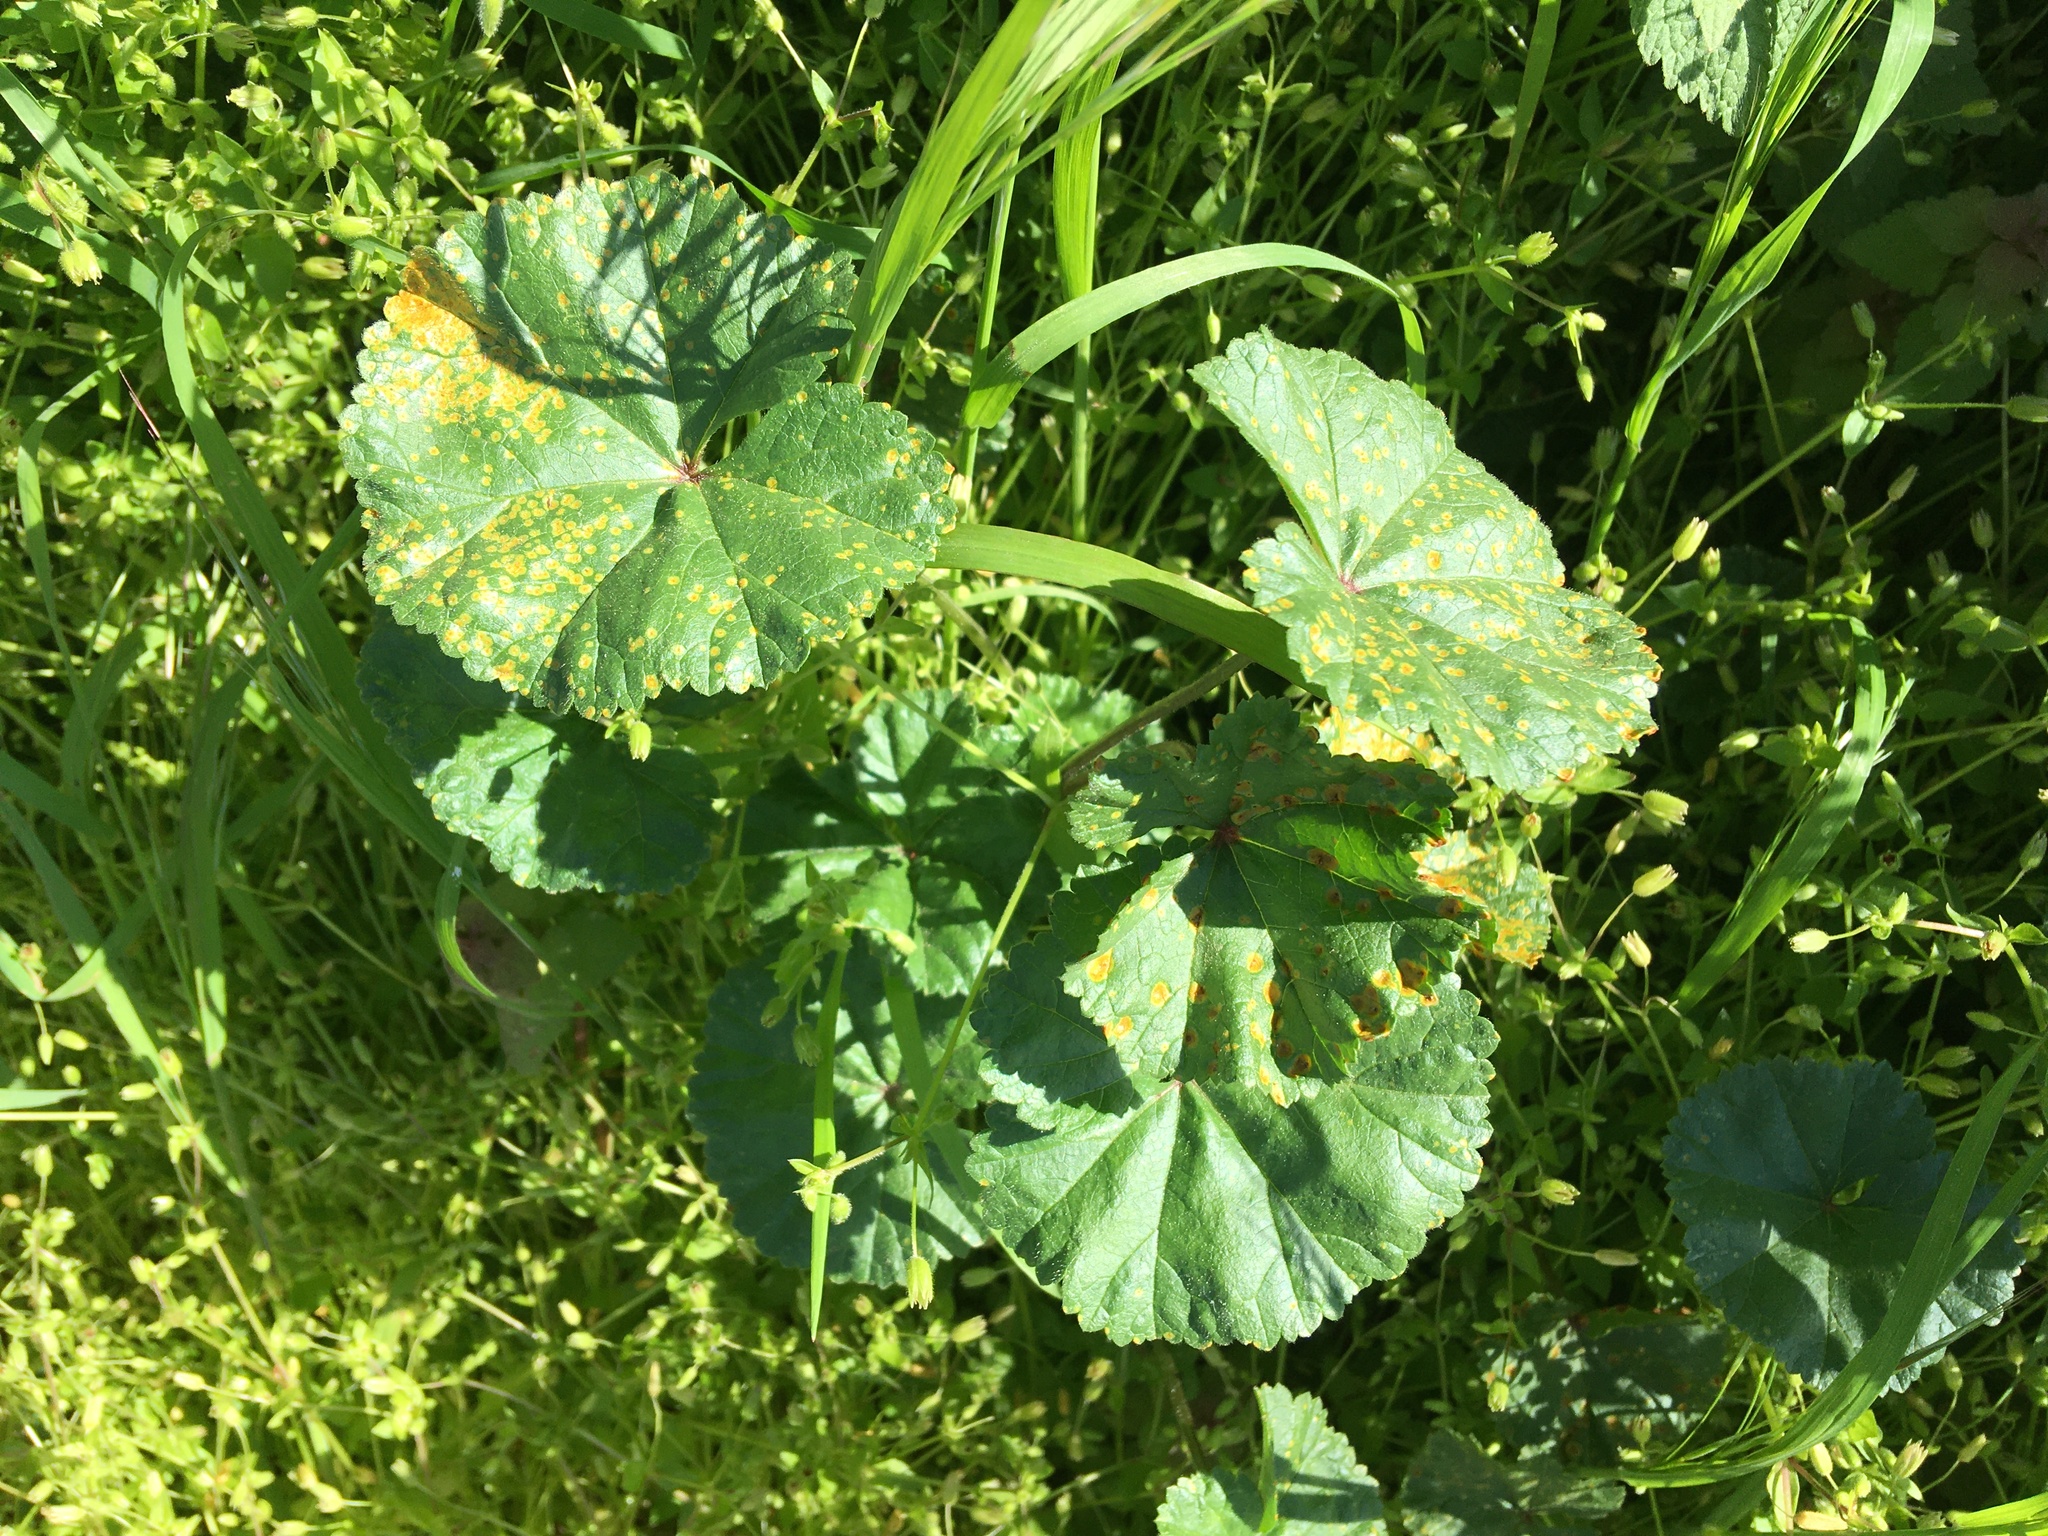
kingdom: Plantae
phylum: Tracheophyta
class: Magnoliopsida
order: Malvales
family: Malvaceae
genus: Malva
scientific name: Malva neglecta
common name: Common mallow
